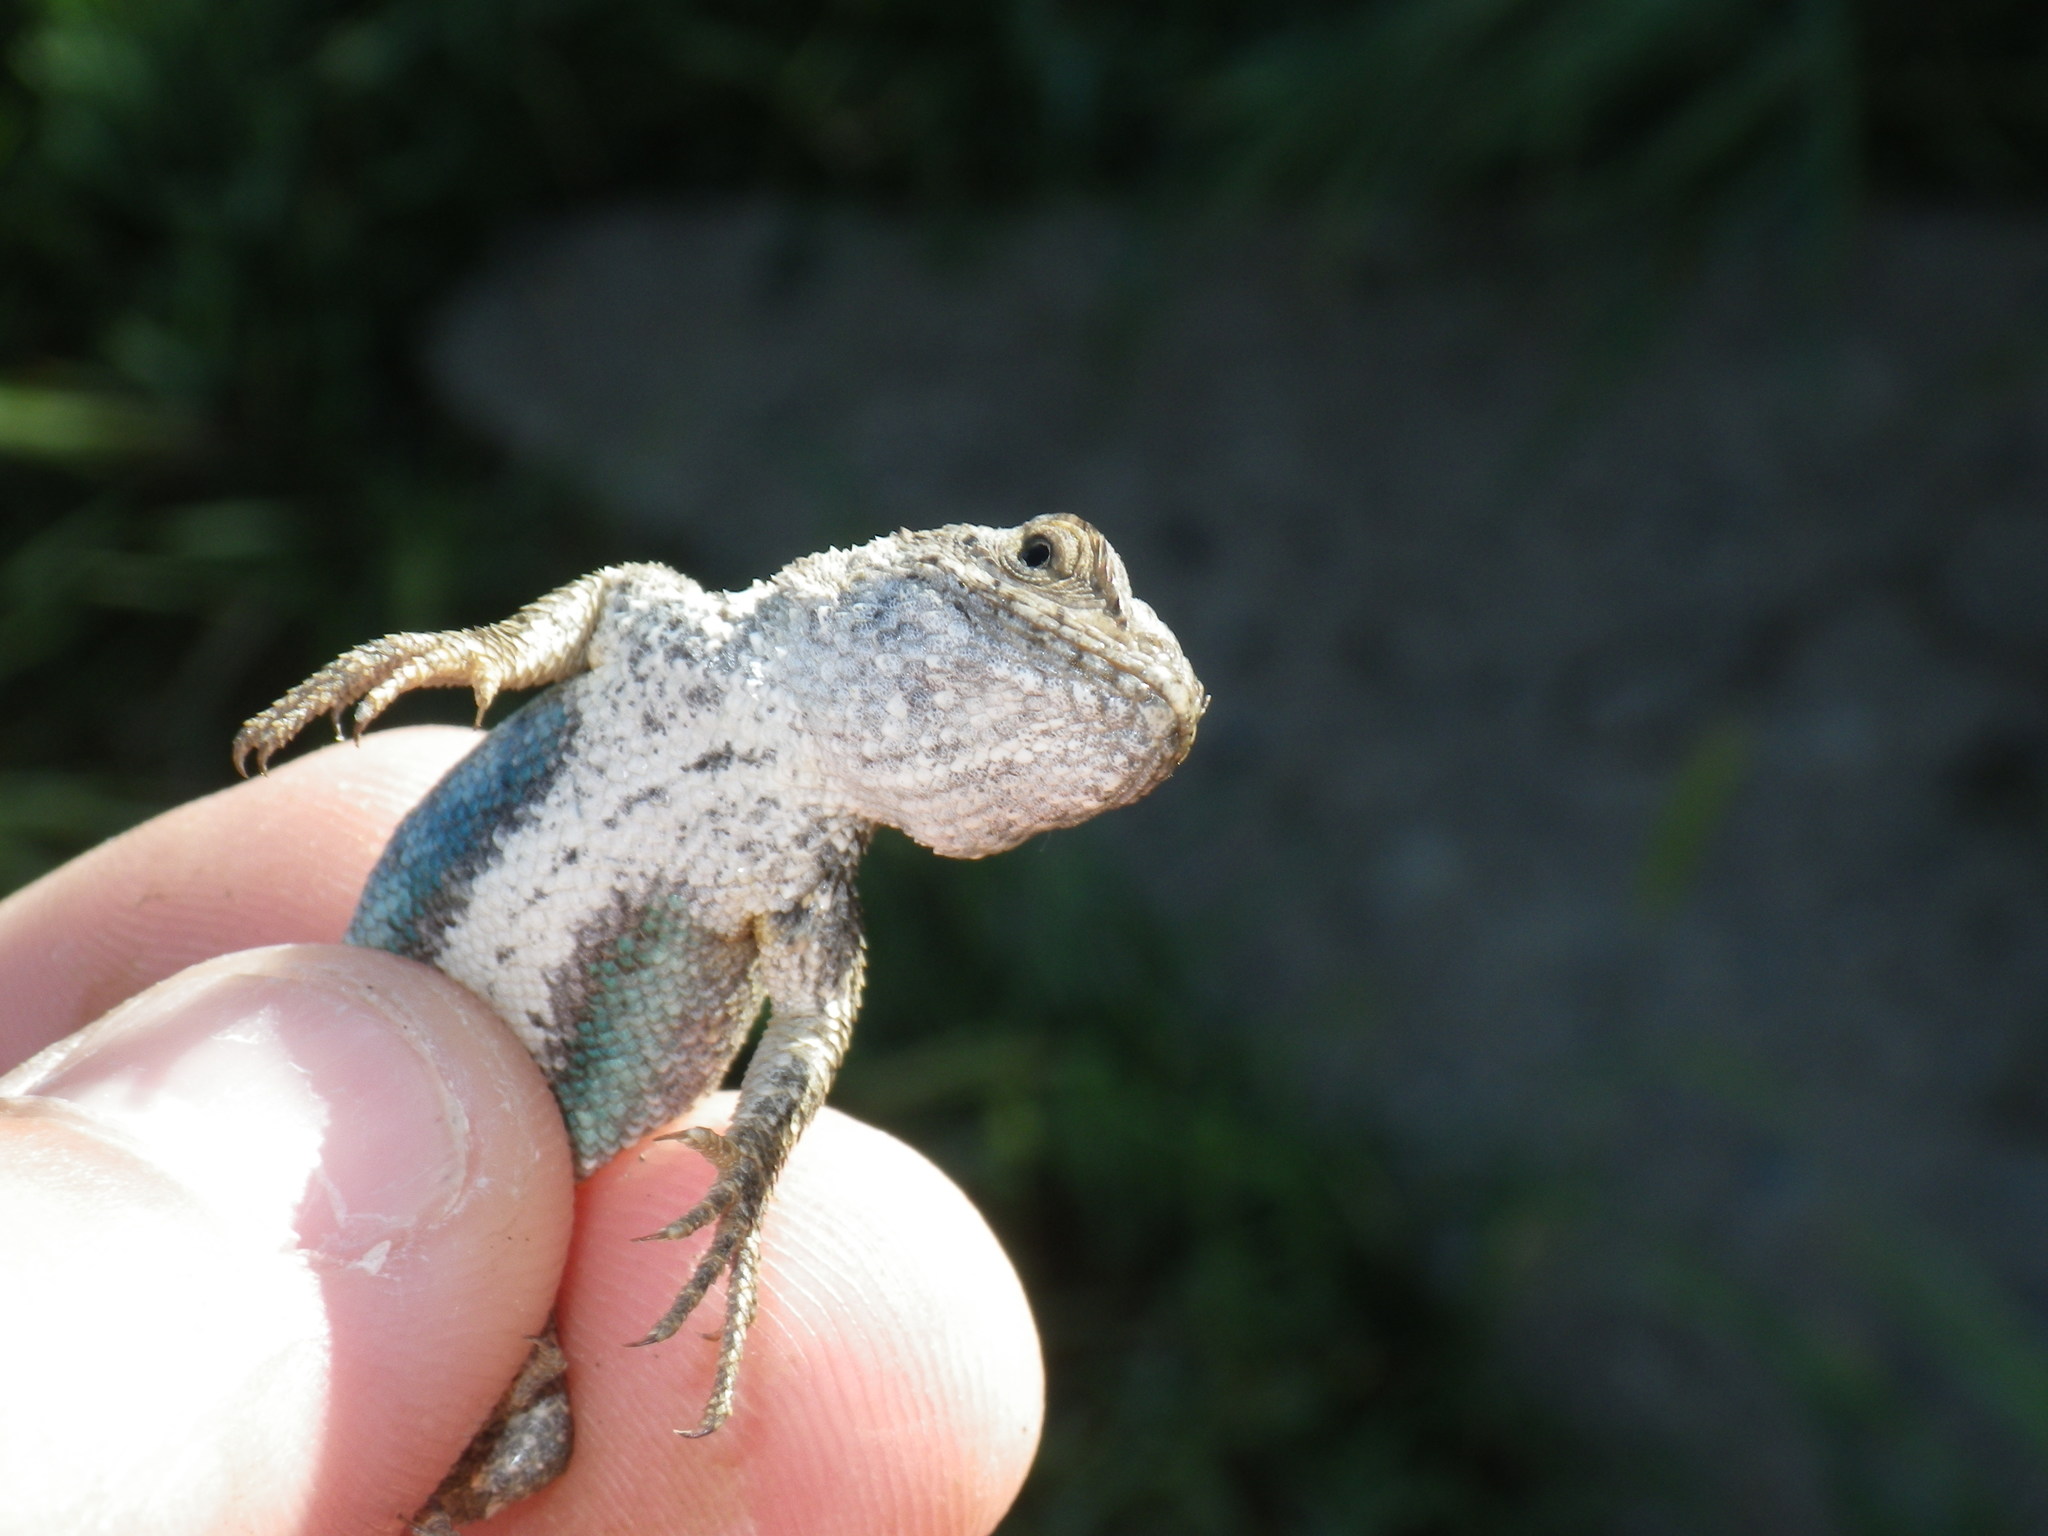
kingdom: Animalia
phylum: Chordata
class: Squamata
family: Phrynosomatidae
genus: Sceloporus
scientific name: Sceloporus occidentalis
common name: Western fence lizard
